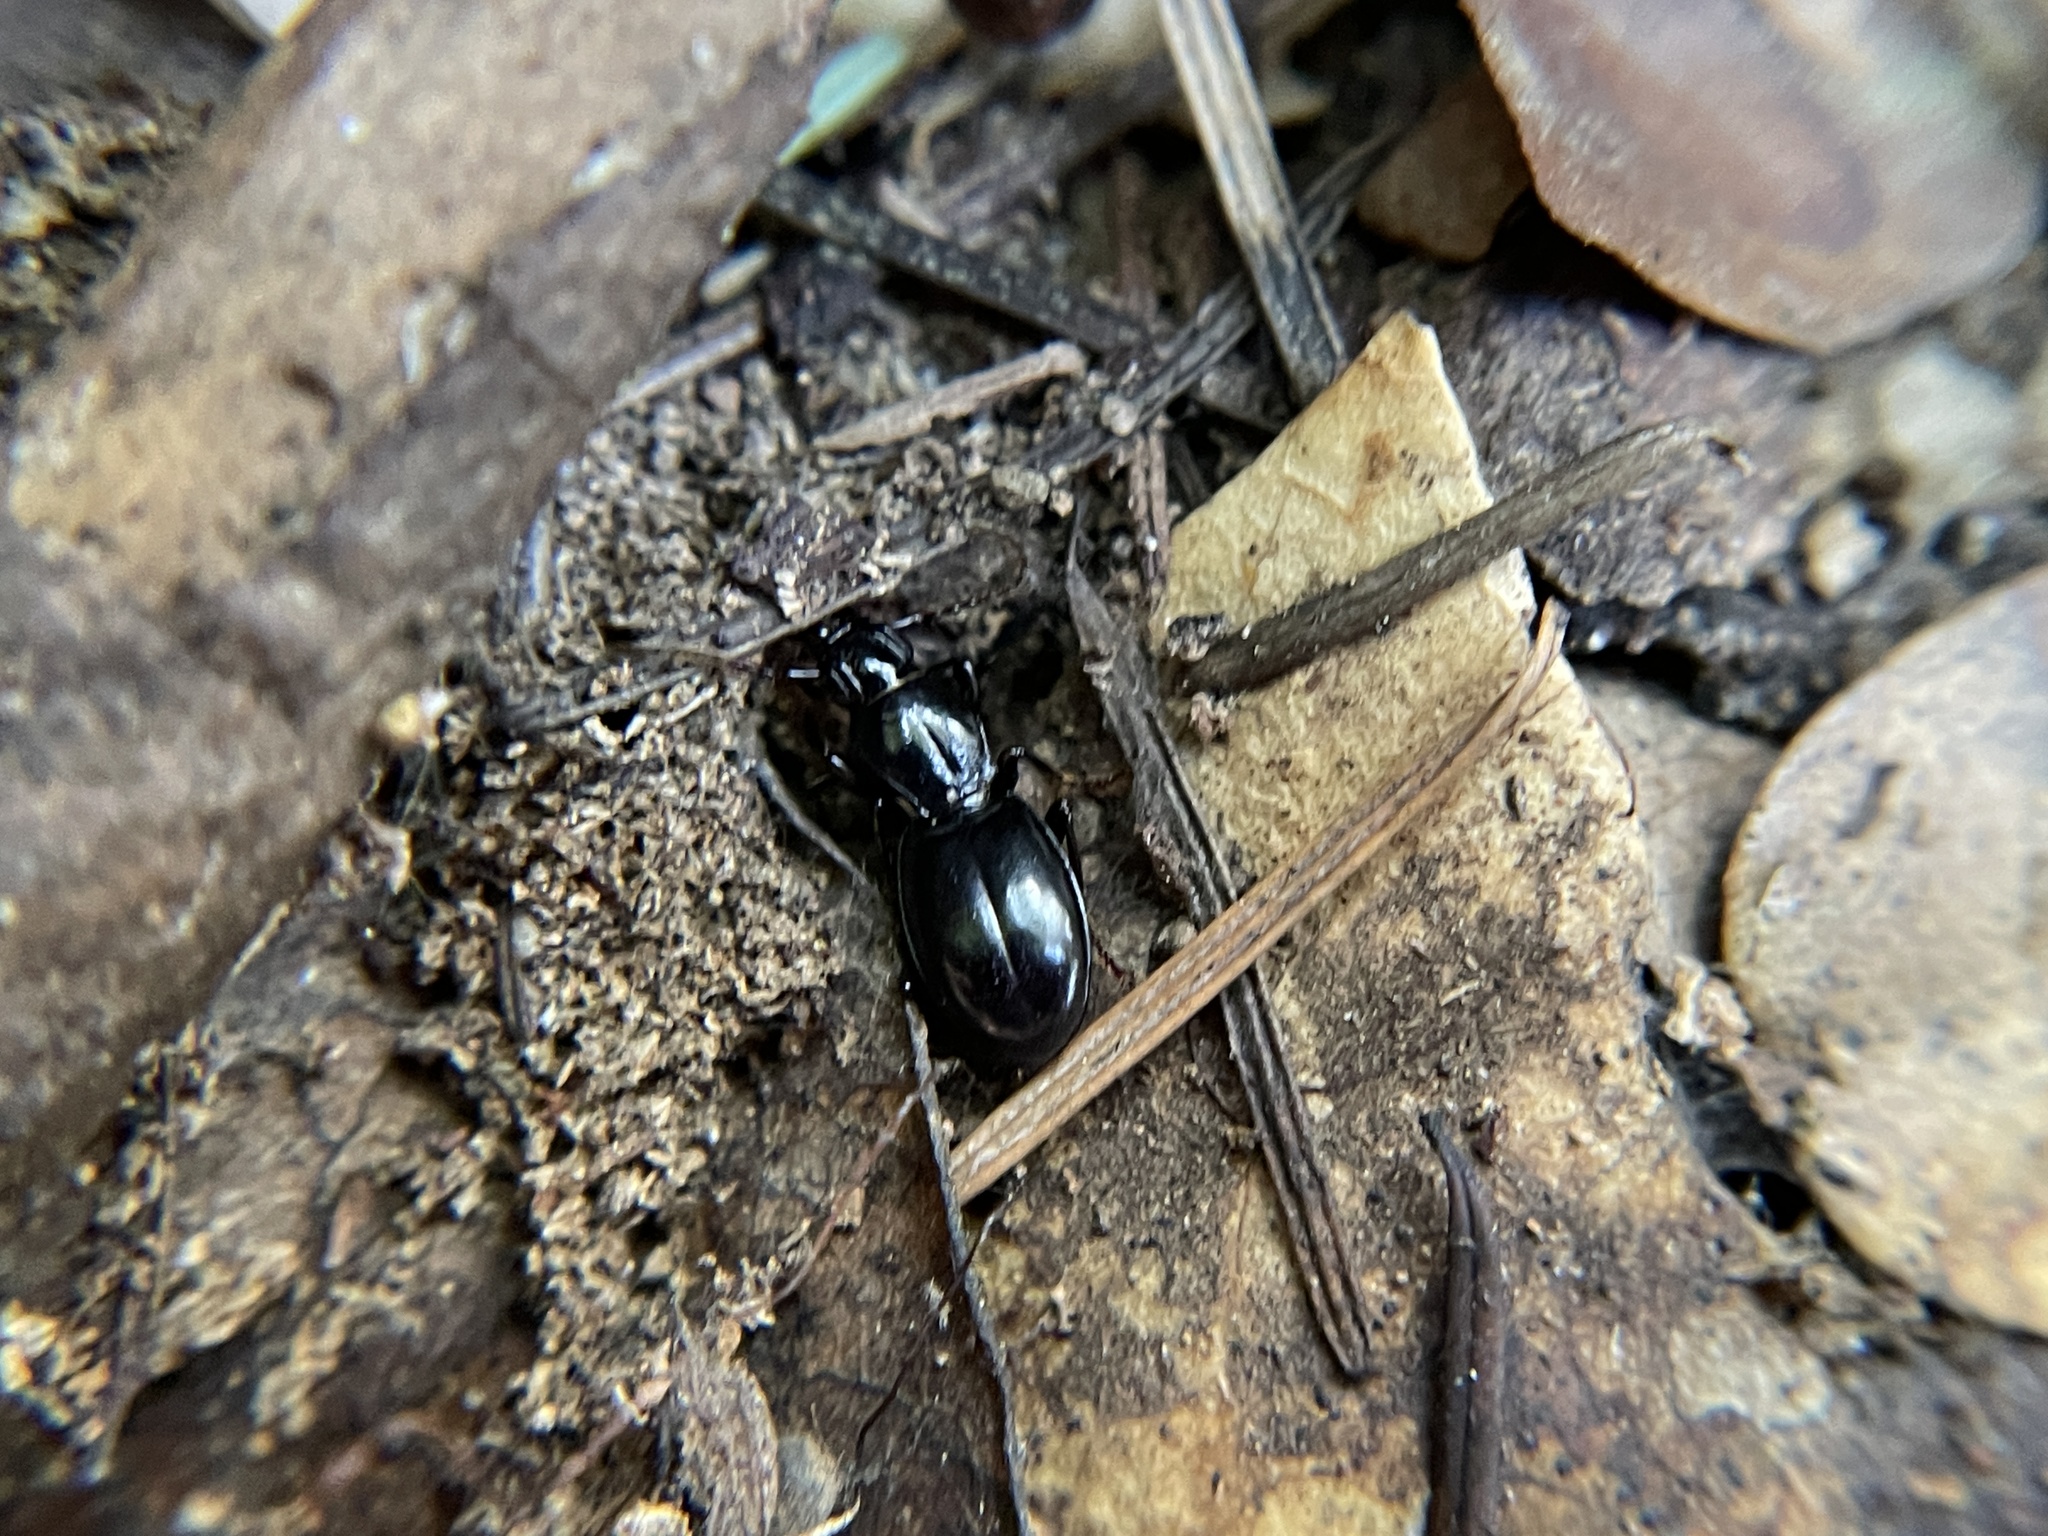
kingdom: Animalia
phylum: Arthropoda
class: Insecta
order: Coleoptera
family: Carabidae
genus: Promecognathus
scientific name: Promecognathus laevissimus
